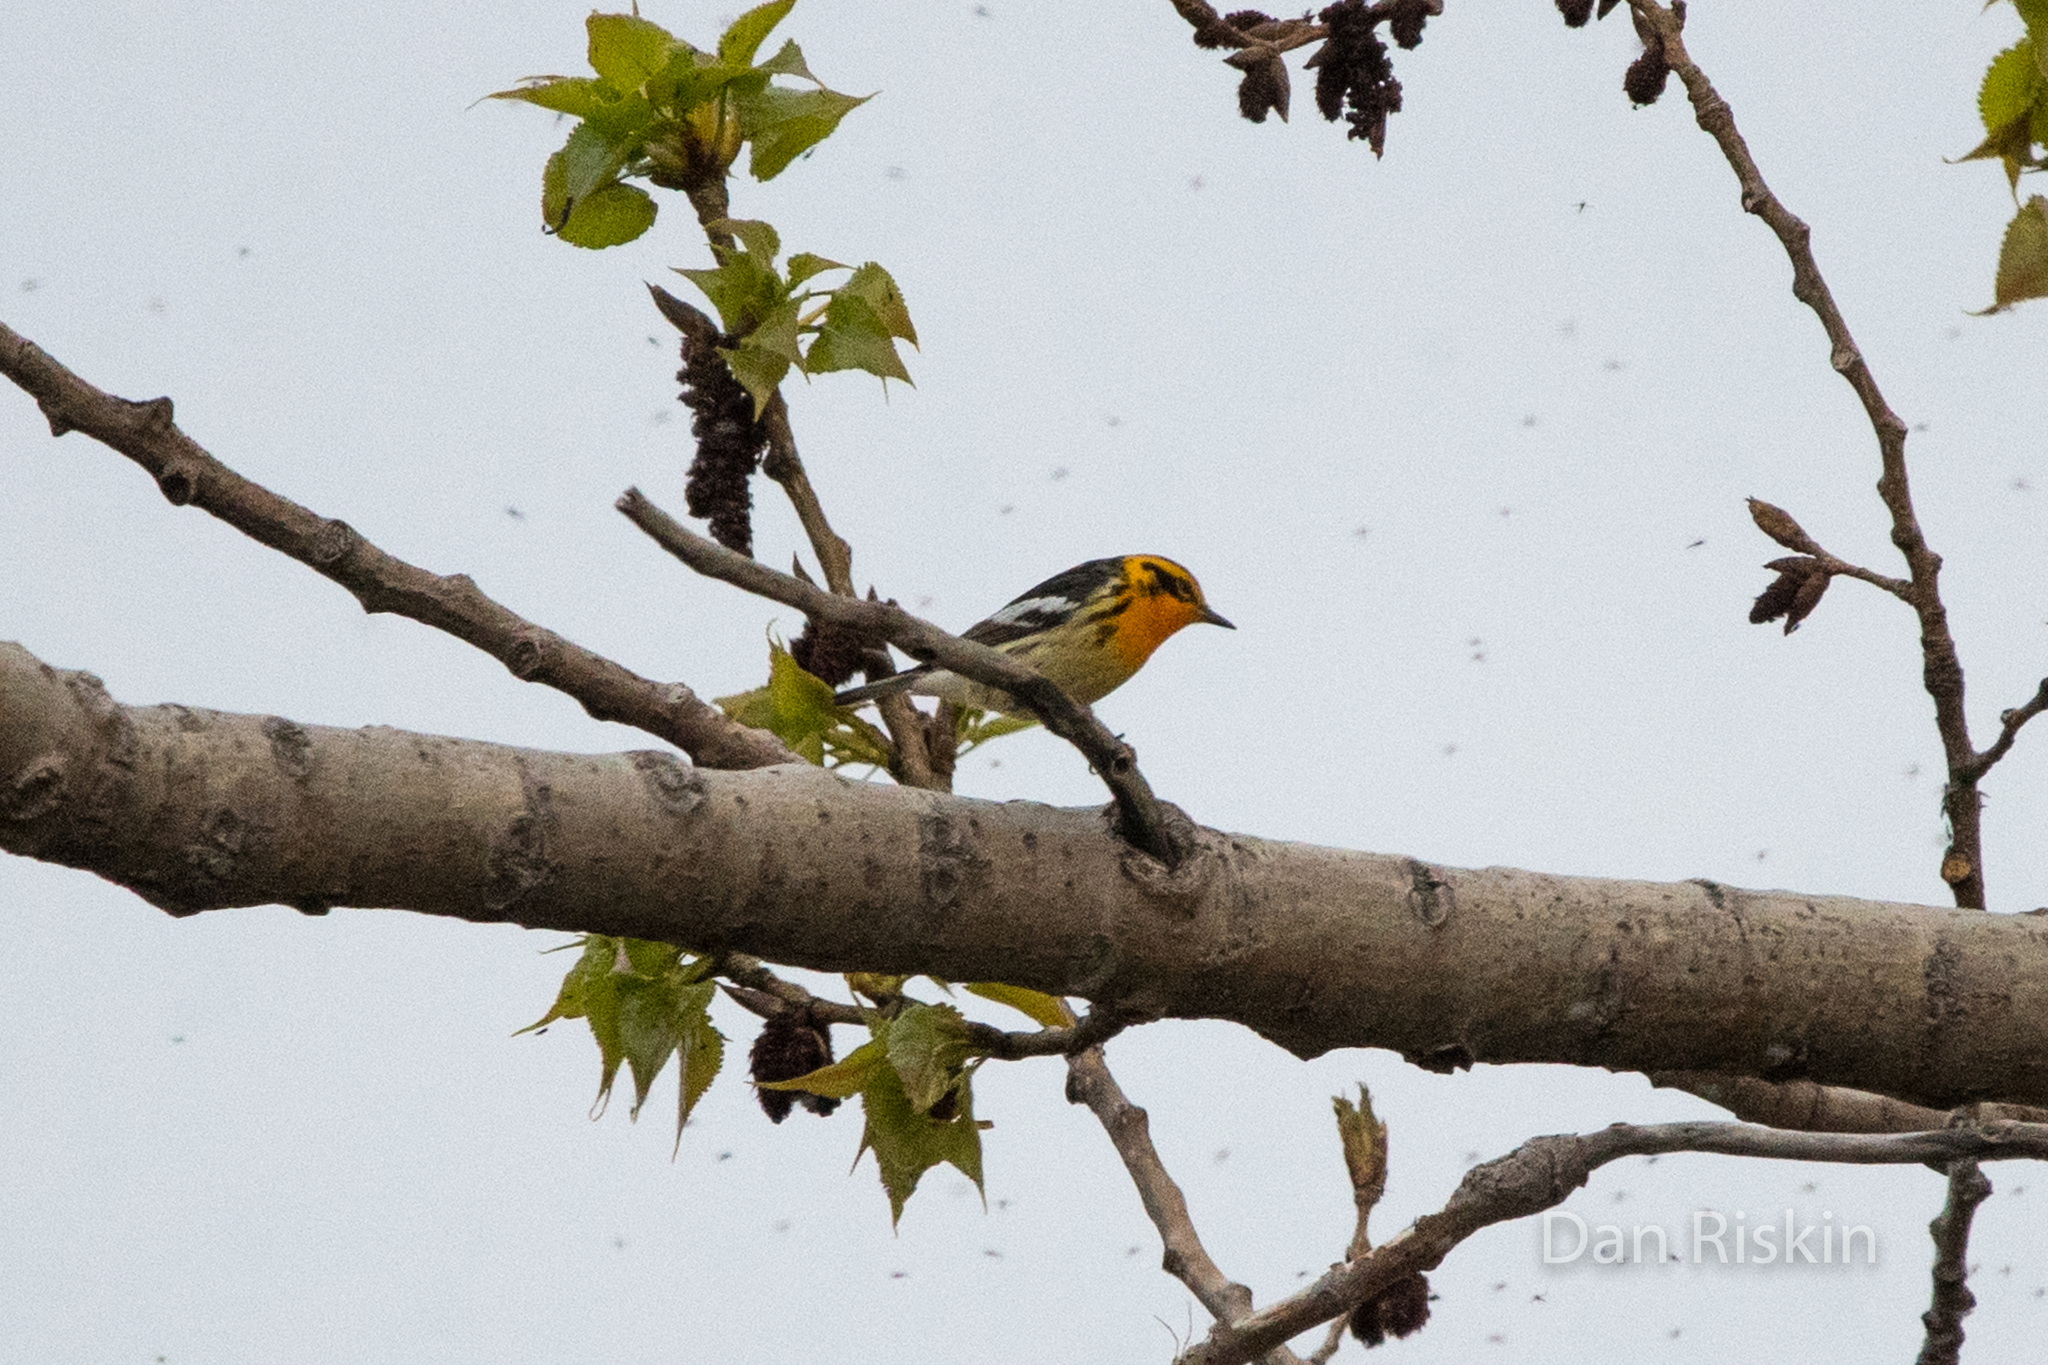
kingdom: Animalia
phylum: Chordata
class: Aves
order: Passeriformes
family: Parulidae
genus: Setophaga
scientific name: Setophaga fusca
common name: Blackburnian warbler
